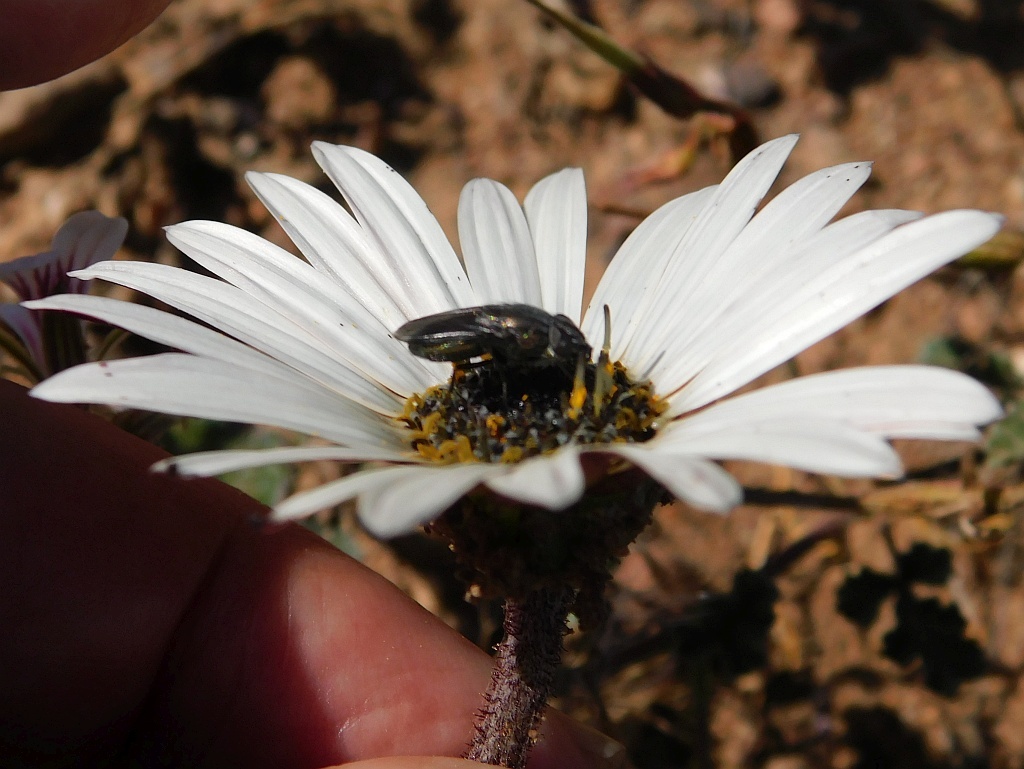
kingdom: Plantae
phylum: Tracheophyta
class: Magnoliopsida
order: Asterales
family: Asteraceae
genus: Arctotis
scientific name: Arctotis acaulis
